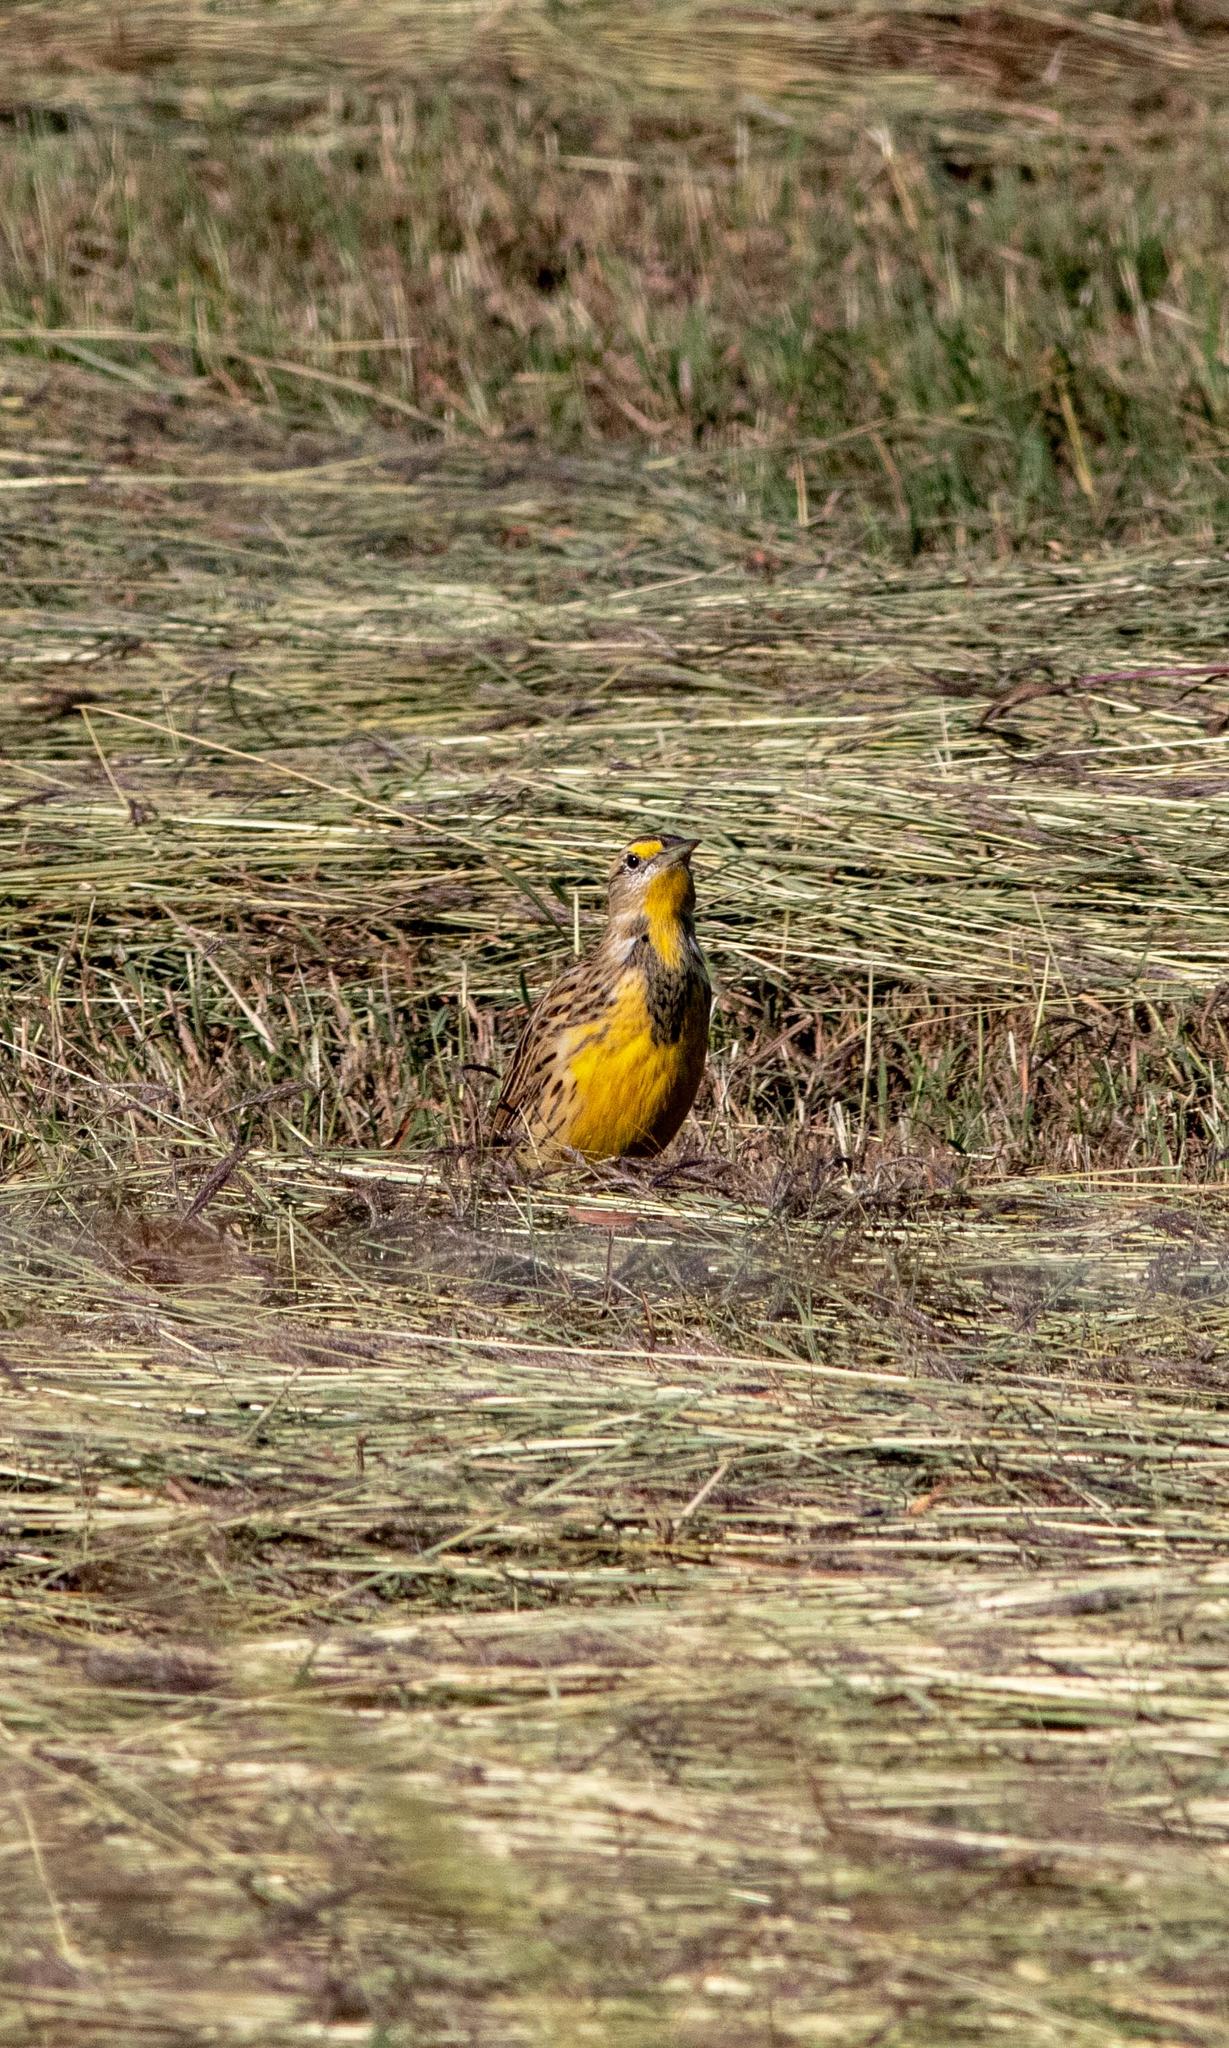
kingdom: Animalia
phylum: Chordata
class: Aves
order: Passeriformes
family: Icteridae
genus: Sturnella
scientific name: Sturnella magna
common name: Eastern meadowlark
